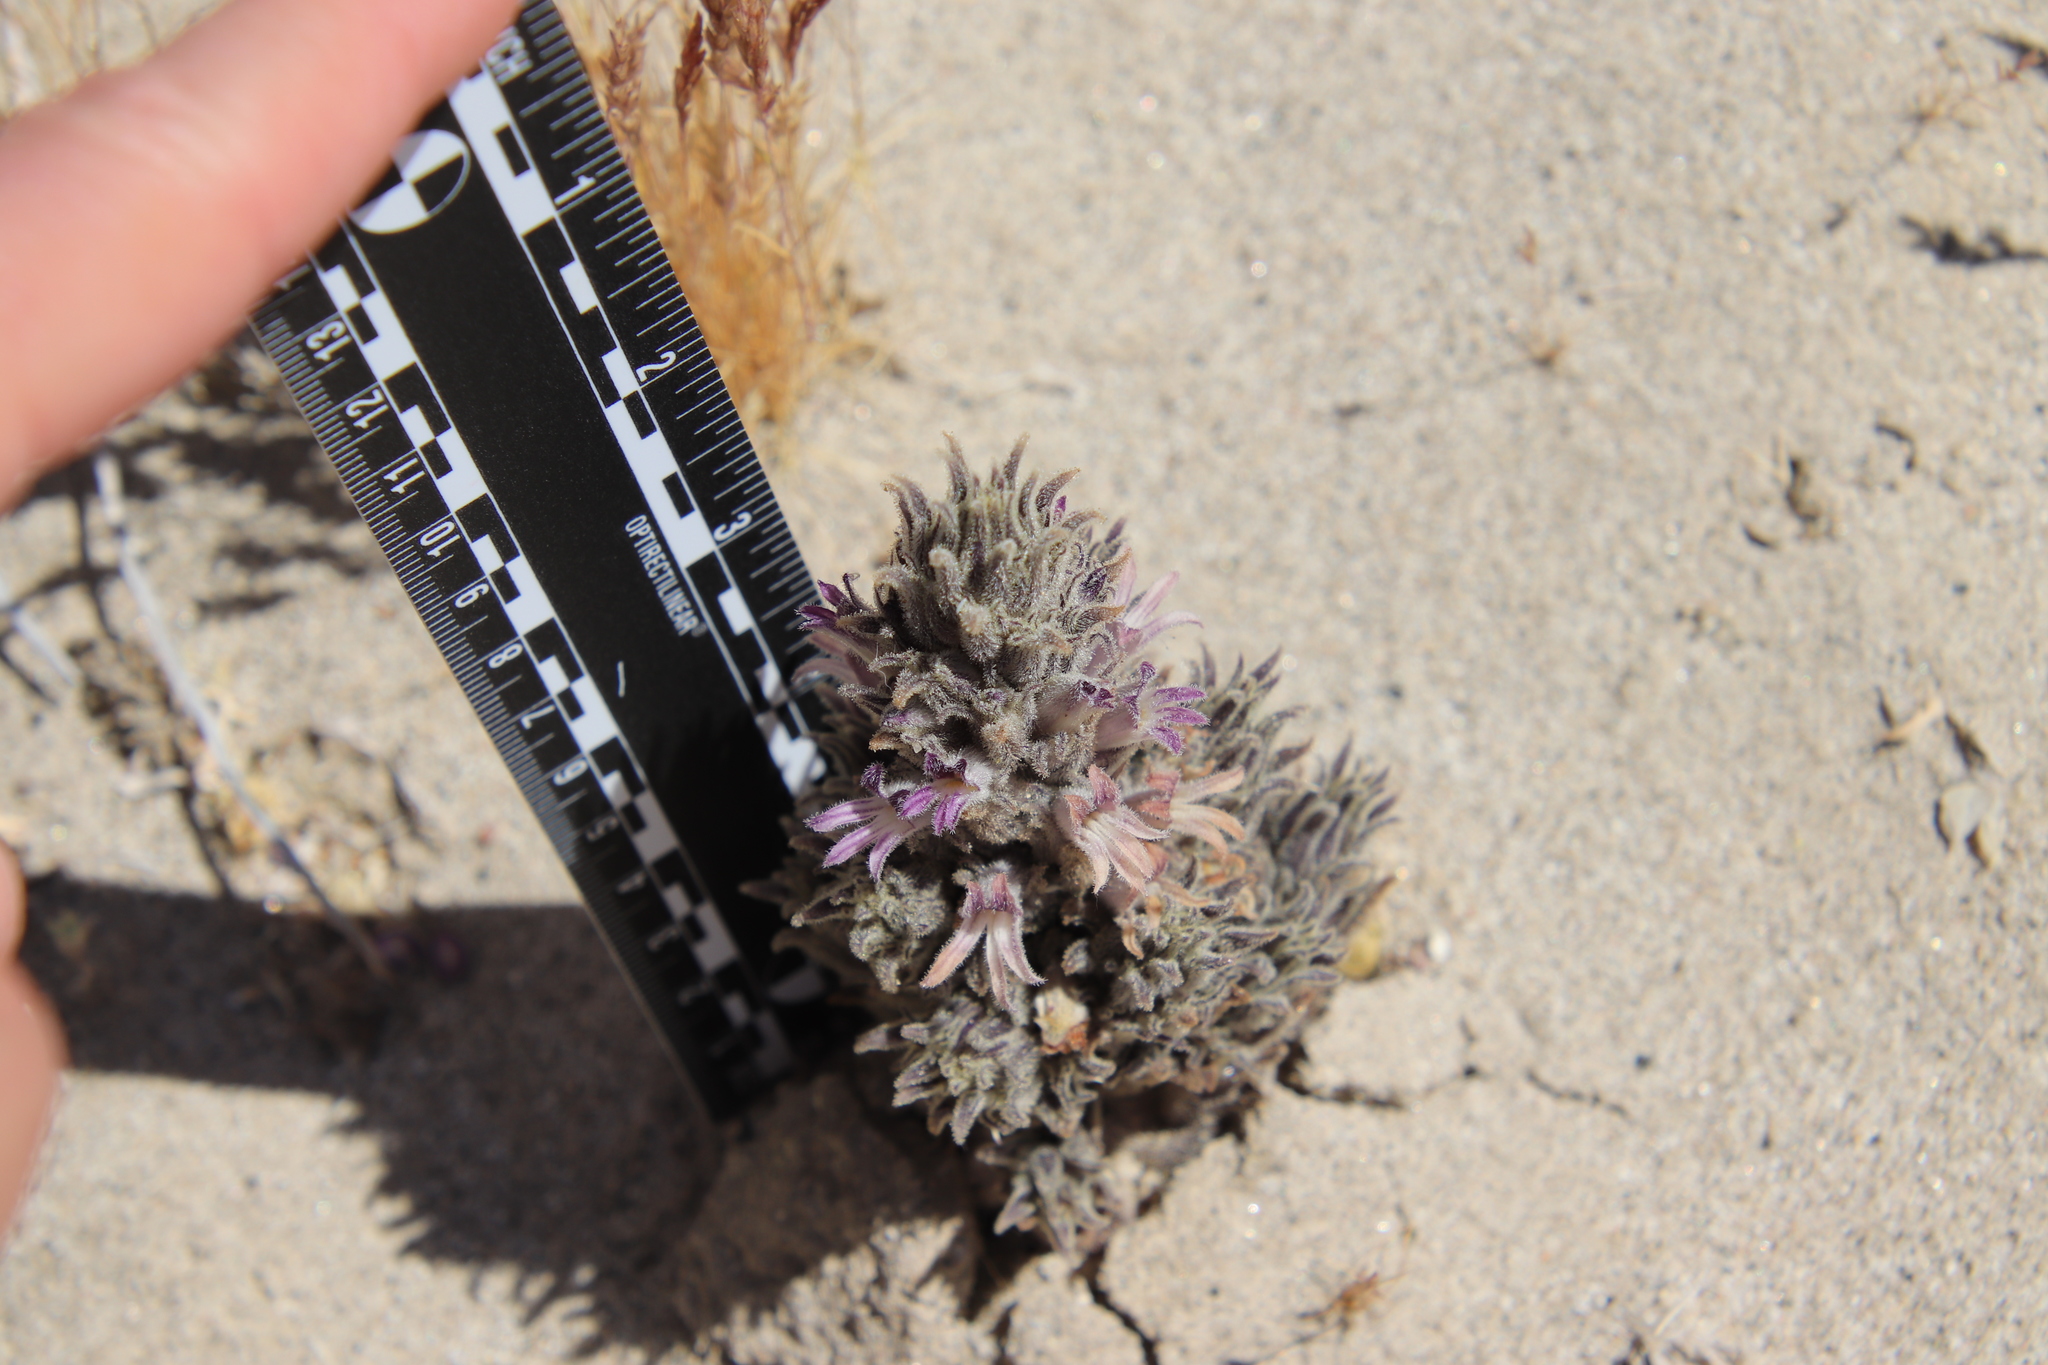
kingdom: Plantae
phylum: Tracheophyta
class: Magnoliopsida
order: Lamiales
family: Orobanchaceae
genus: Aphyllon
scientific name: Aphyllon cooperi
